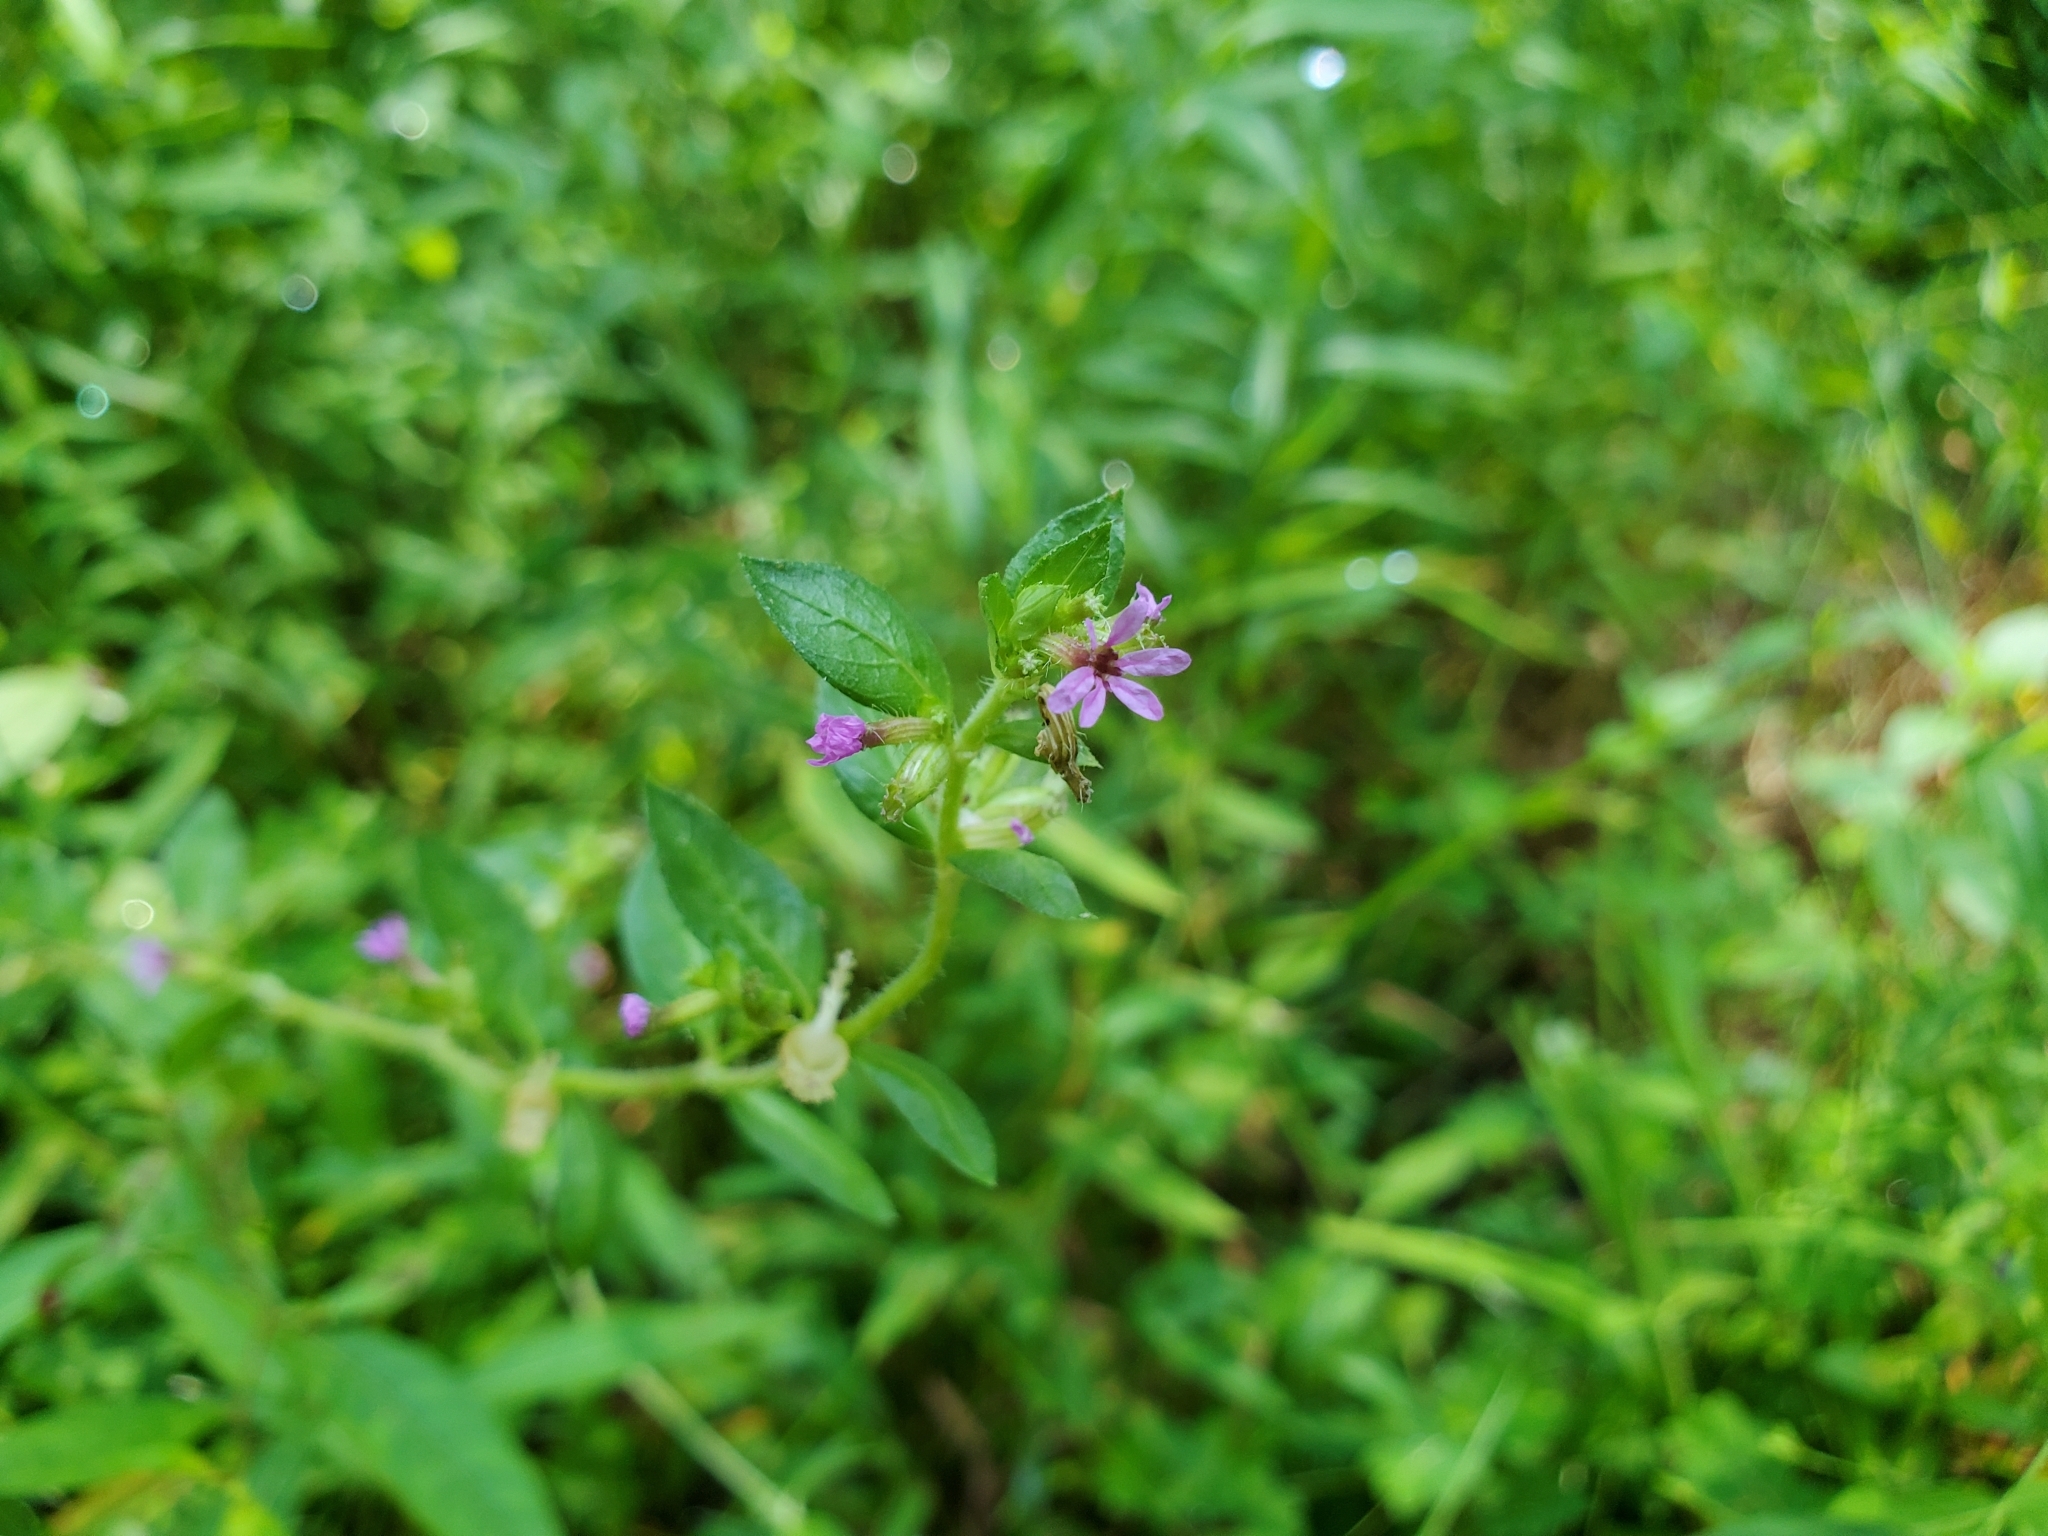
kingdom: Plantae
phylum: Tracheophyta
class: Magnoliopsida
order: Myrtales
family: Lythraceae
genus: Cuphea
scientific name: Cuphea carthagenensis
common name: Colombian waxweed
